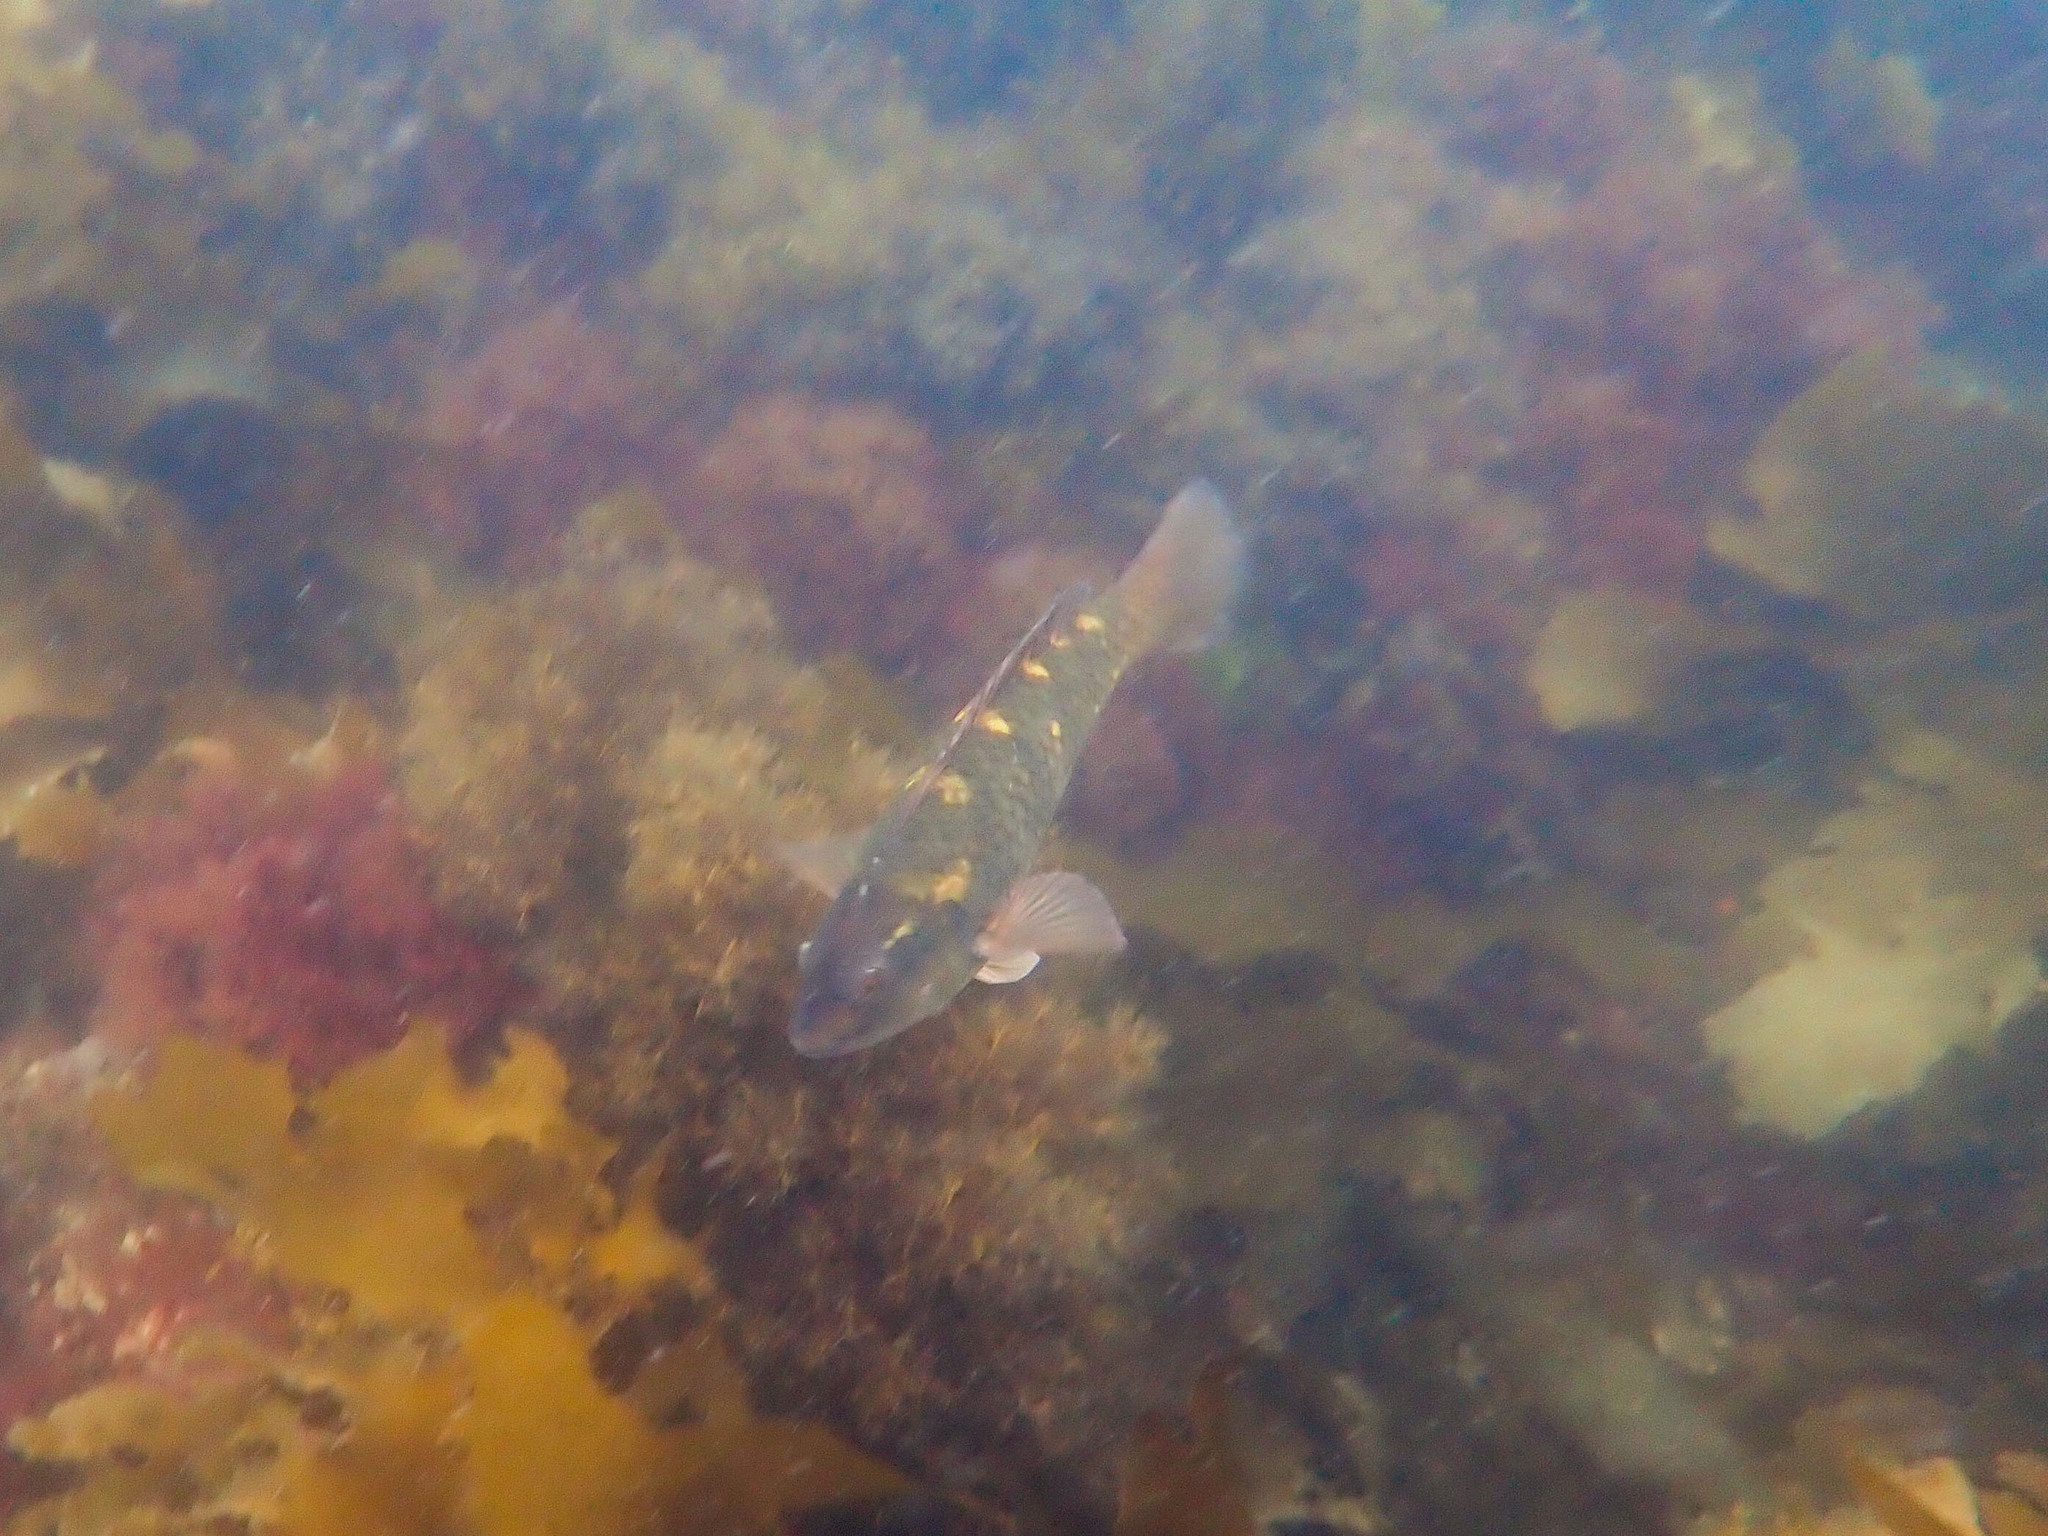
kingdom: Animalia
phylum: Chordata
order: Perciformes
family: Labridae
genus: Notolabrus
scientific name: Notolabrus fucicola
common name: Banded parrotfish
